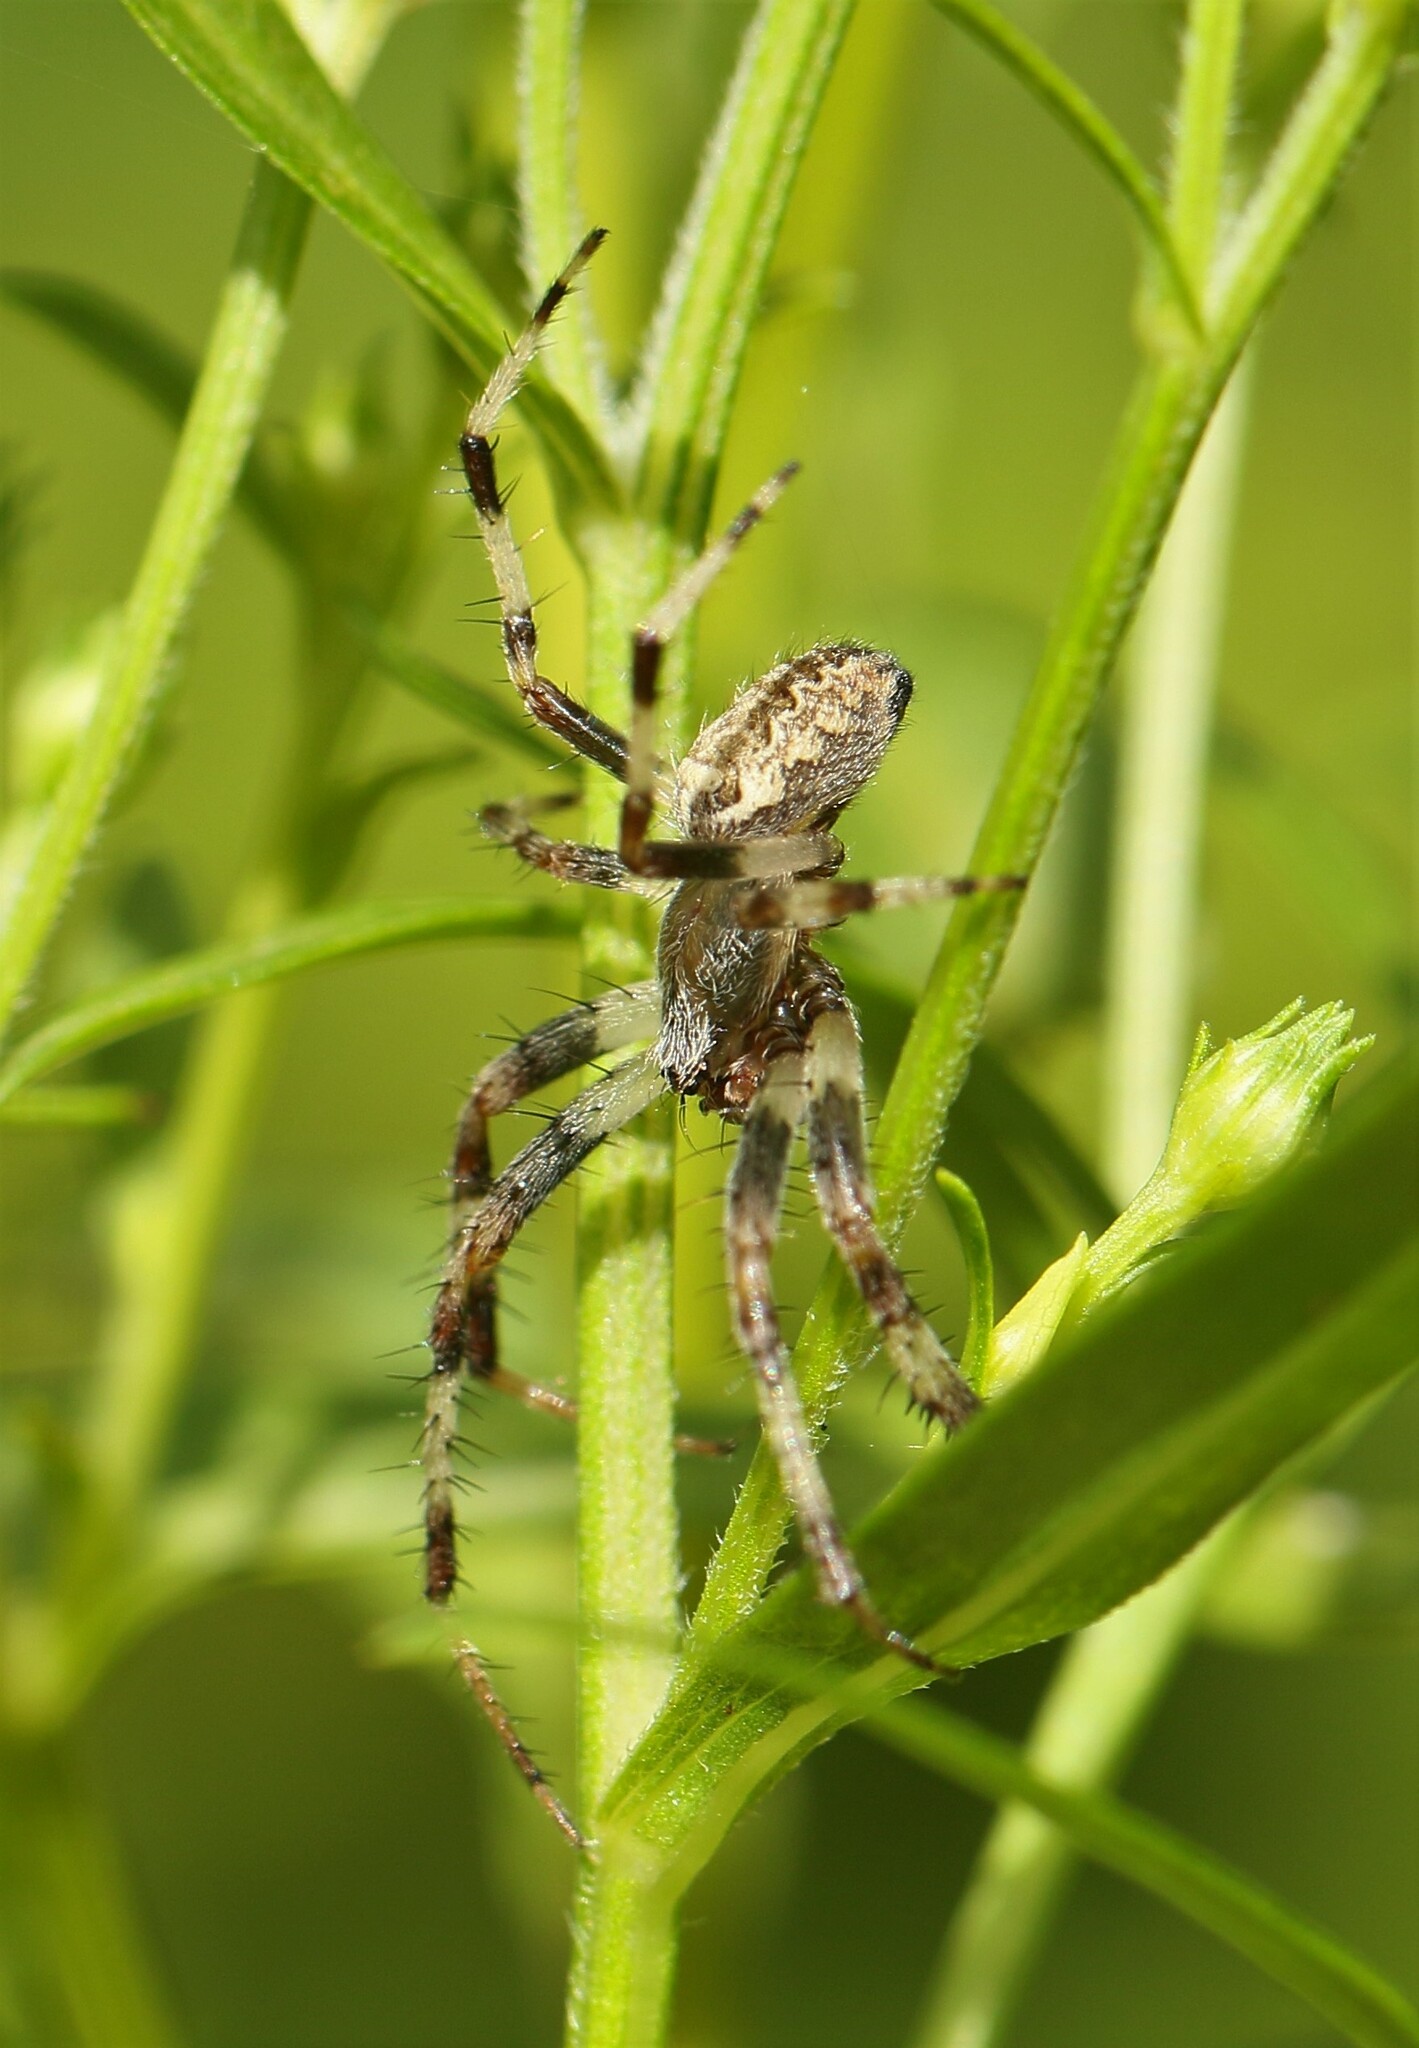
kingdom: Animalia
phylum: Arthropoda
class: Arachnida
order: Araneae
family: Araneidae
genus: Araneus
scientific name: Araneus marmoreus
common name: Marbled orbweaver
